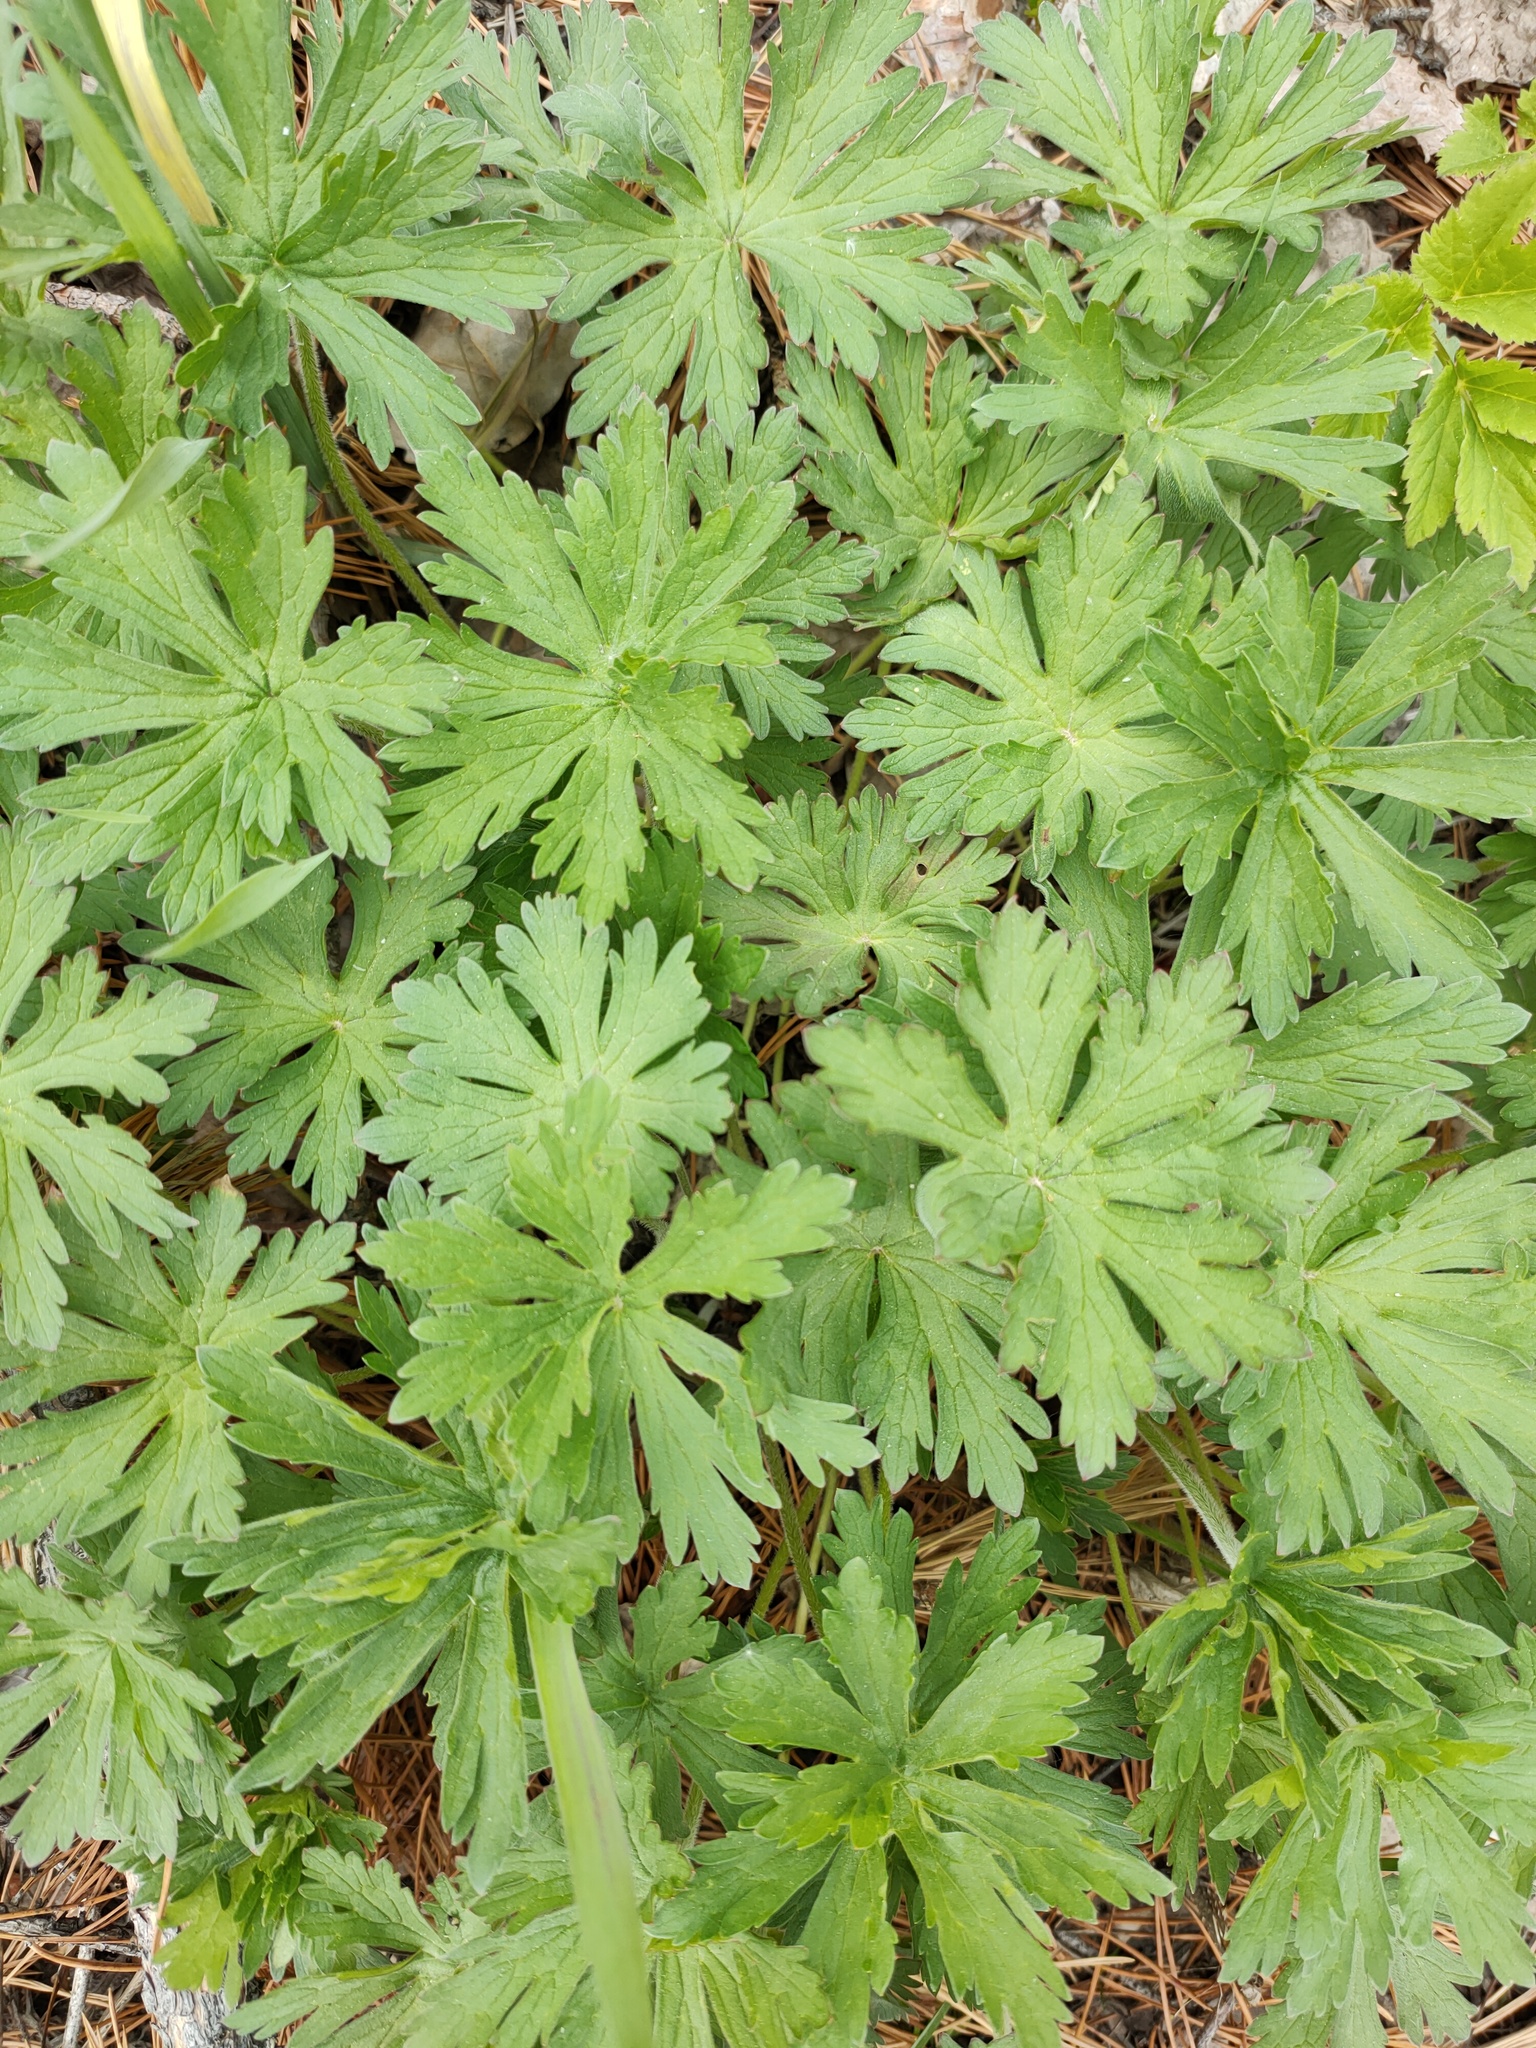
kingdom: Plantae
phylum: Tracheophyta
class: Magnoliopsida
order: Geraniales
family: Geraniaceae
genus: Geranium
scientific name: Geranium pratense
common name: Meadow crane's-bill
